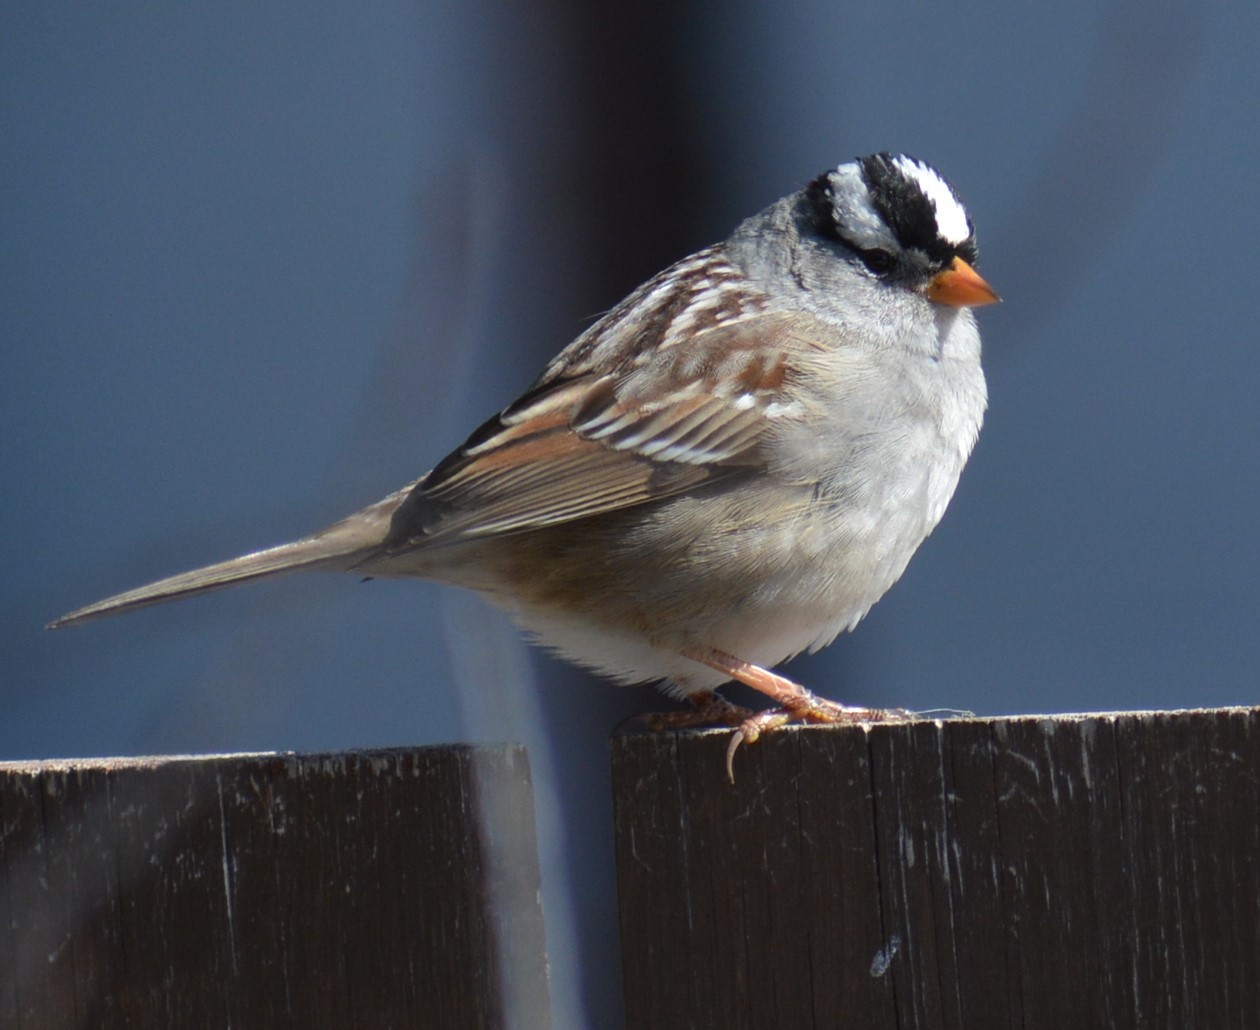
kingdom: Animalia
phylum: Chordata
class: Aves
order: Passeriformes
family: Passerellidae
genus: Zonotrichia
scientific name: Zonotrichia leucophrys
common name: White-crowned sparrow
